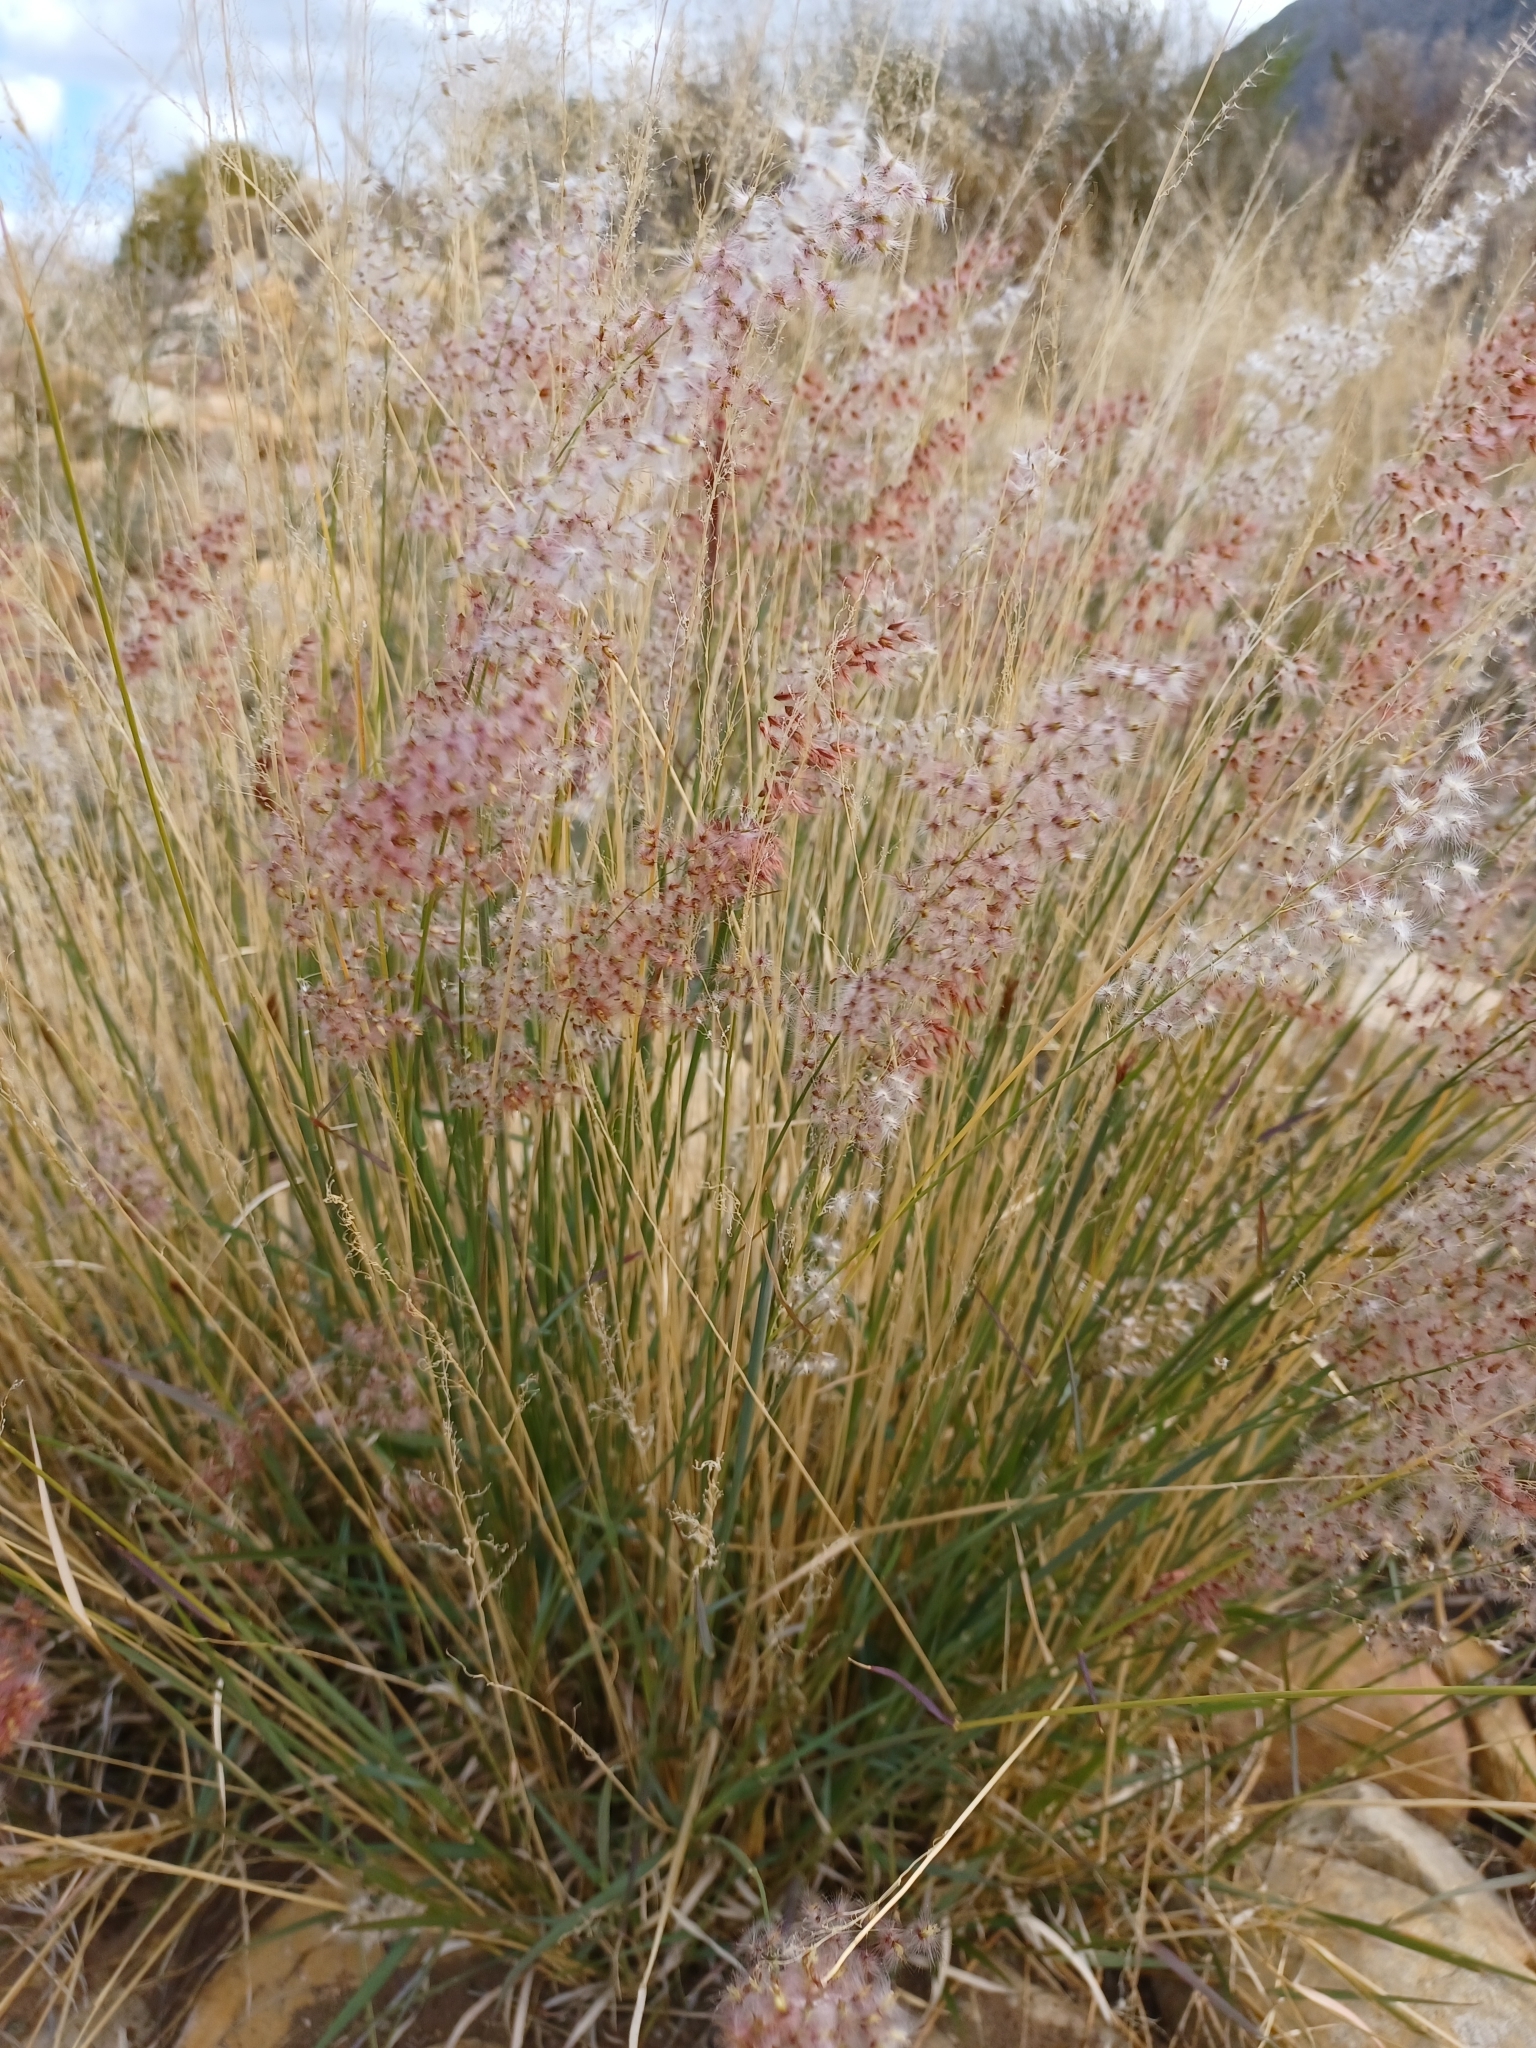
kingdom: Plantae
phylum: Tracheophyta
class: Liliopsida
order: Poales
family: Poaceae
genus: Melinis
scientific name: Melinis repens
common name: Rose natal grass
